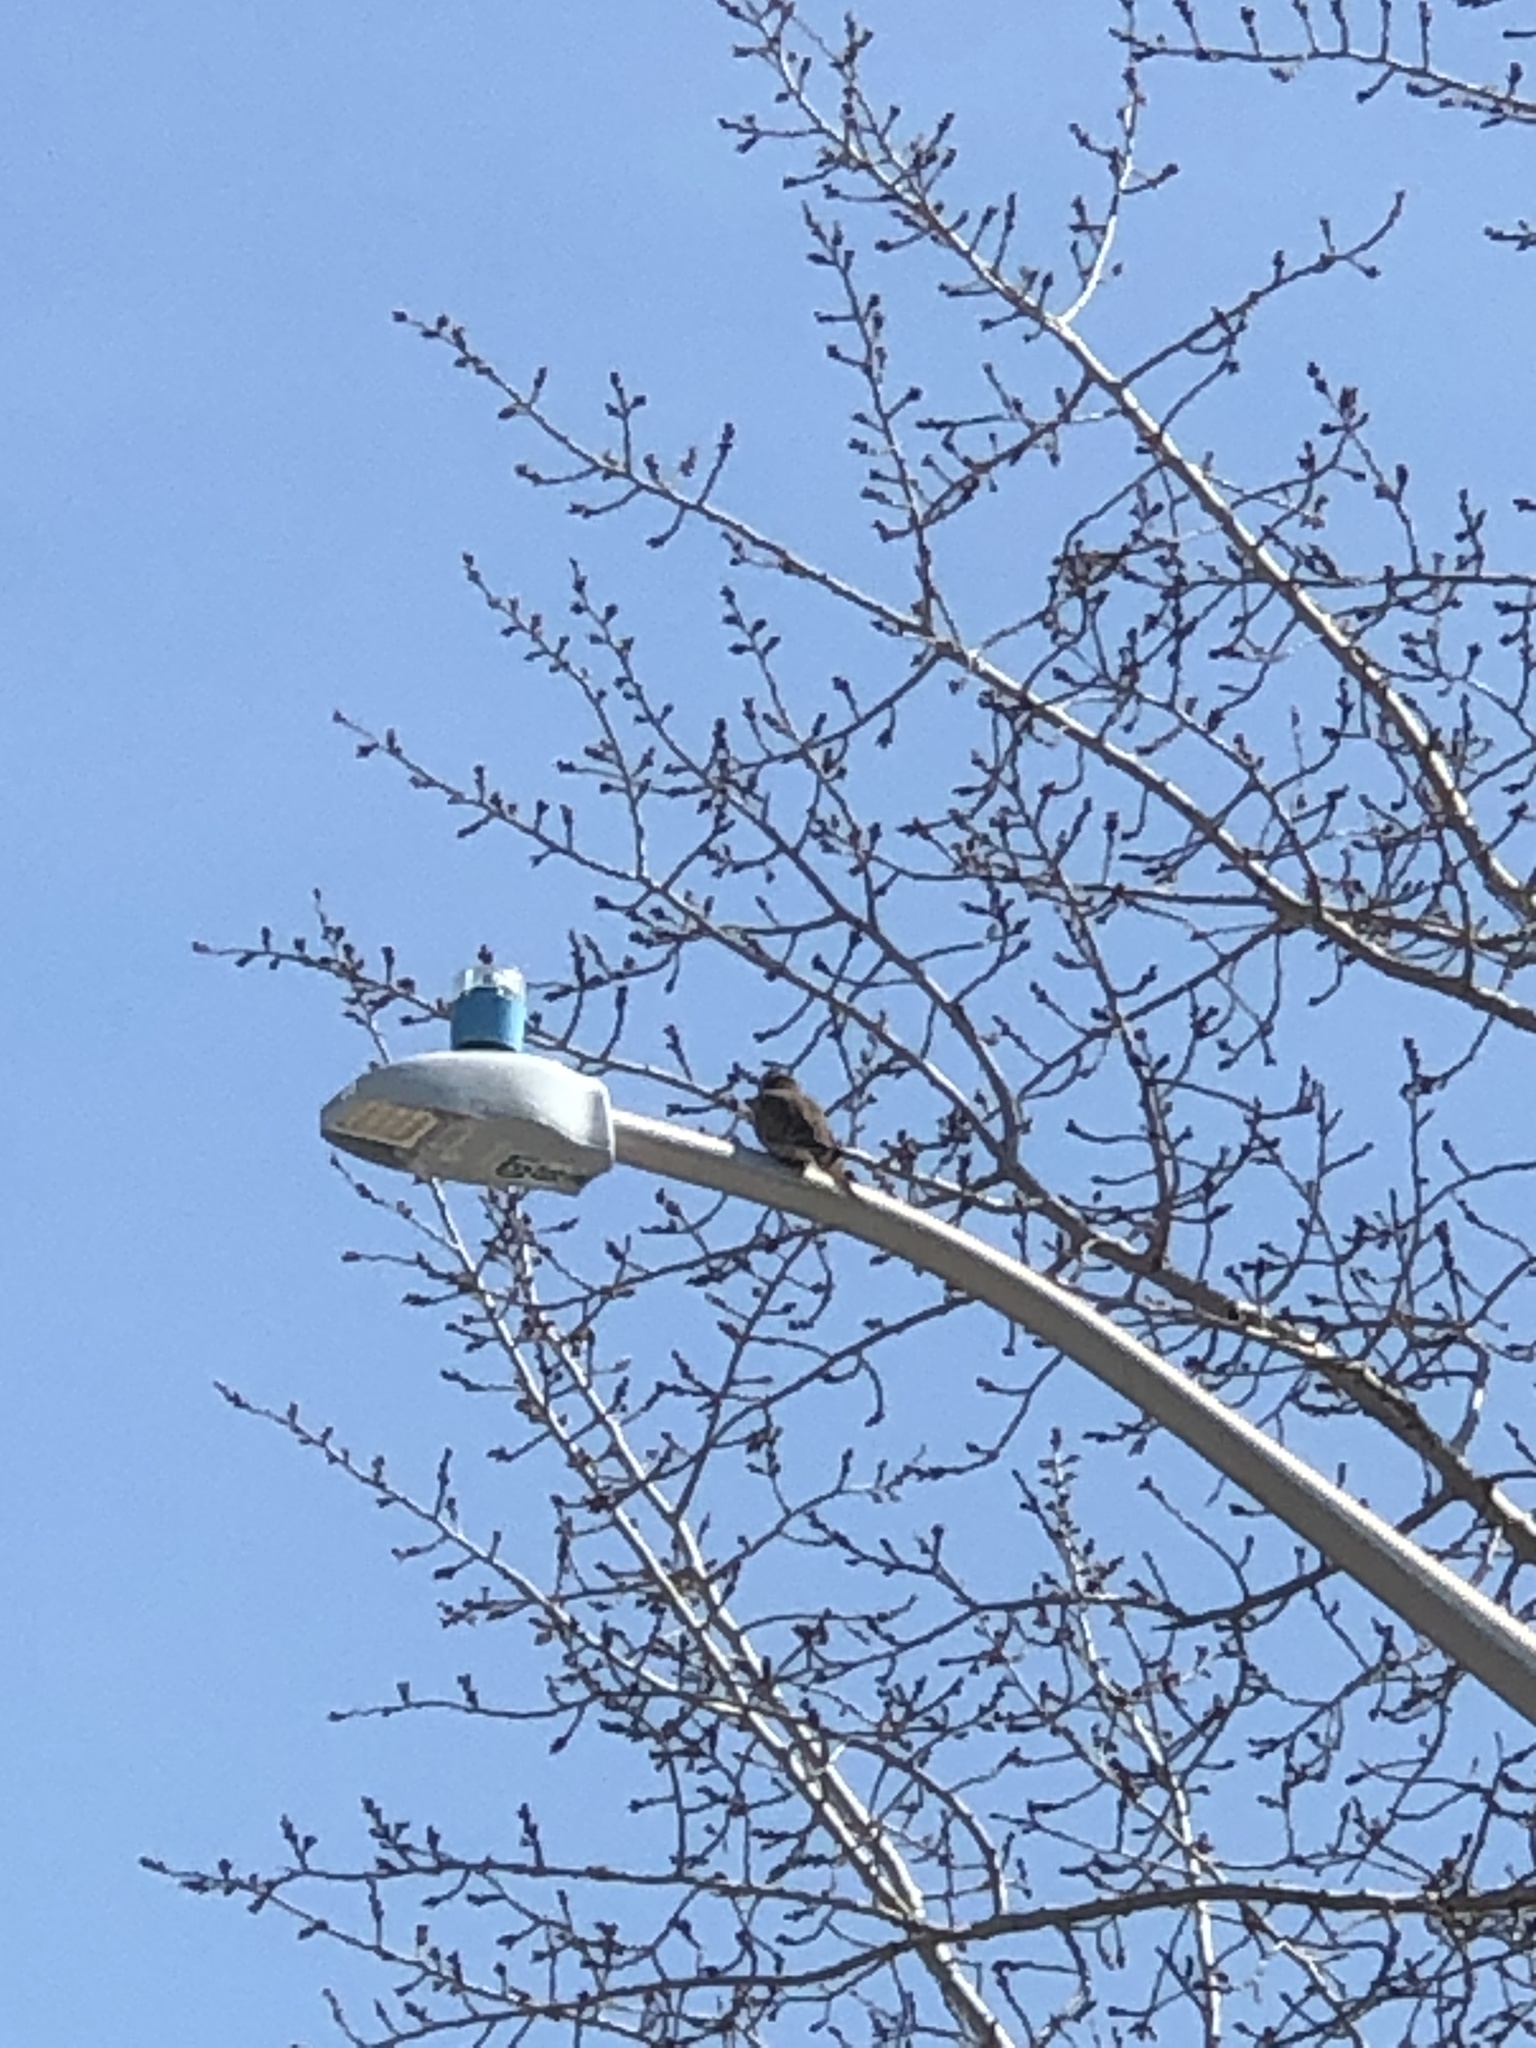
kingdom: Animalia
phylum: Chordata
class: Aves
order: Columbiformes
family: Columbidae
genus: Zenaida
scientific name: Zenaida macroura
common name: Mourning dove
